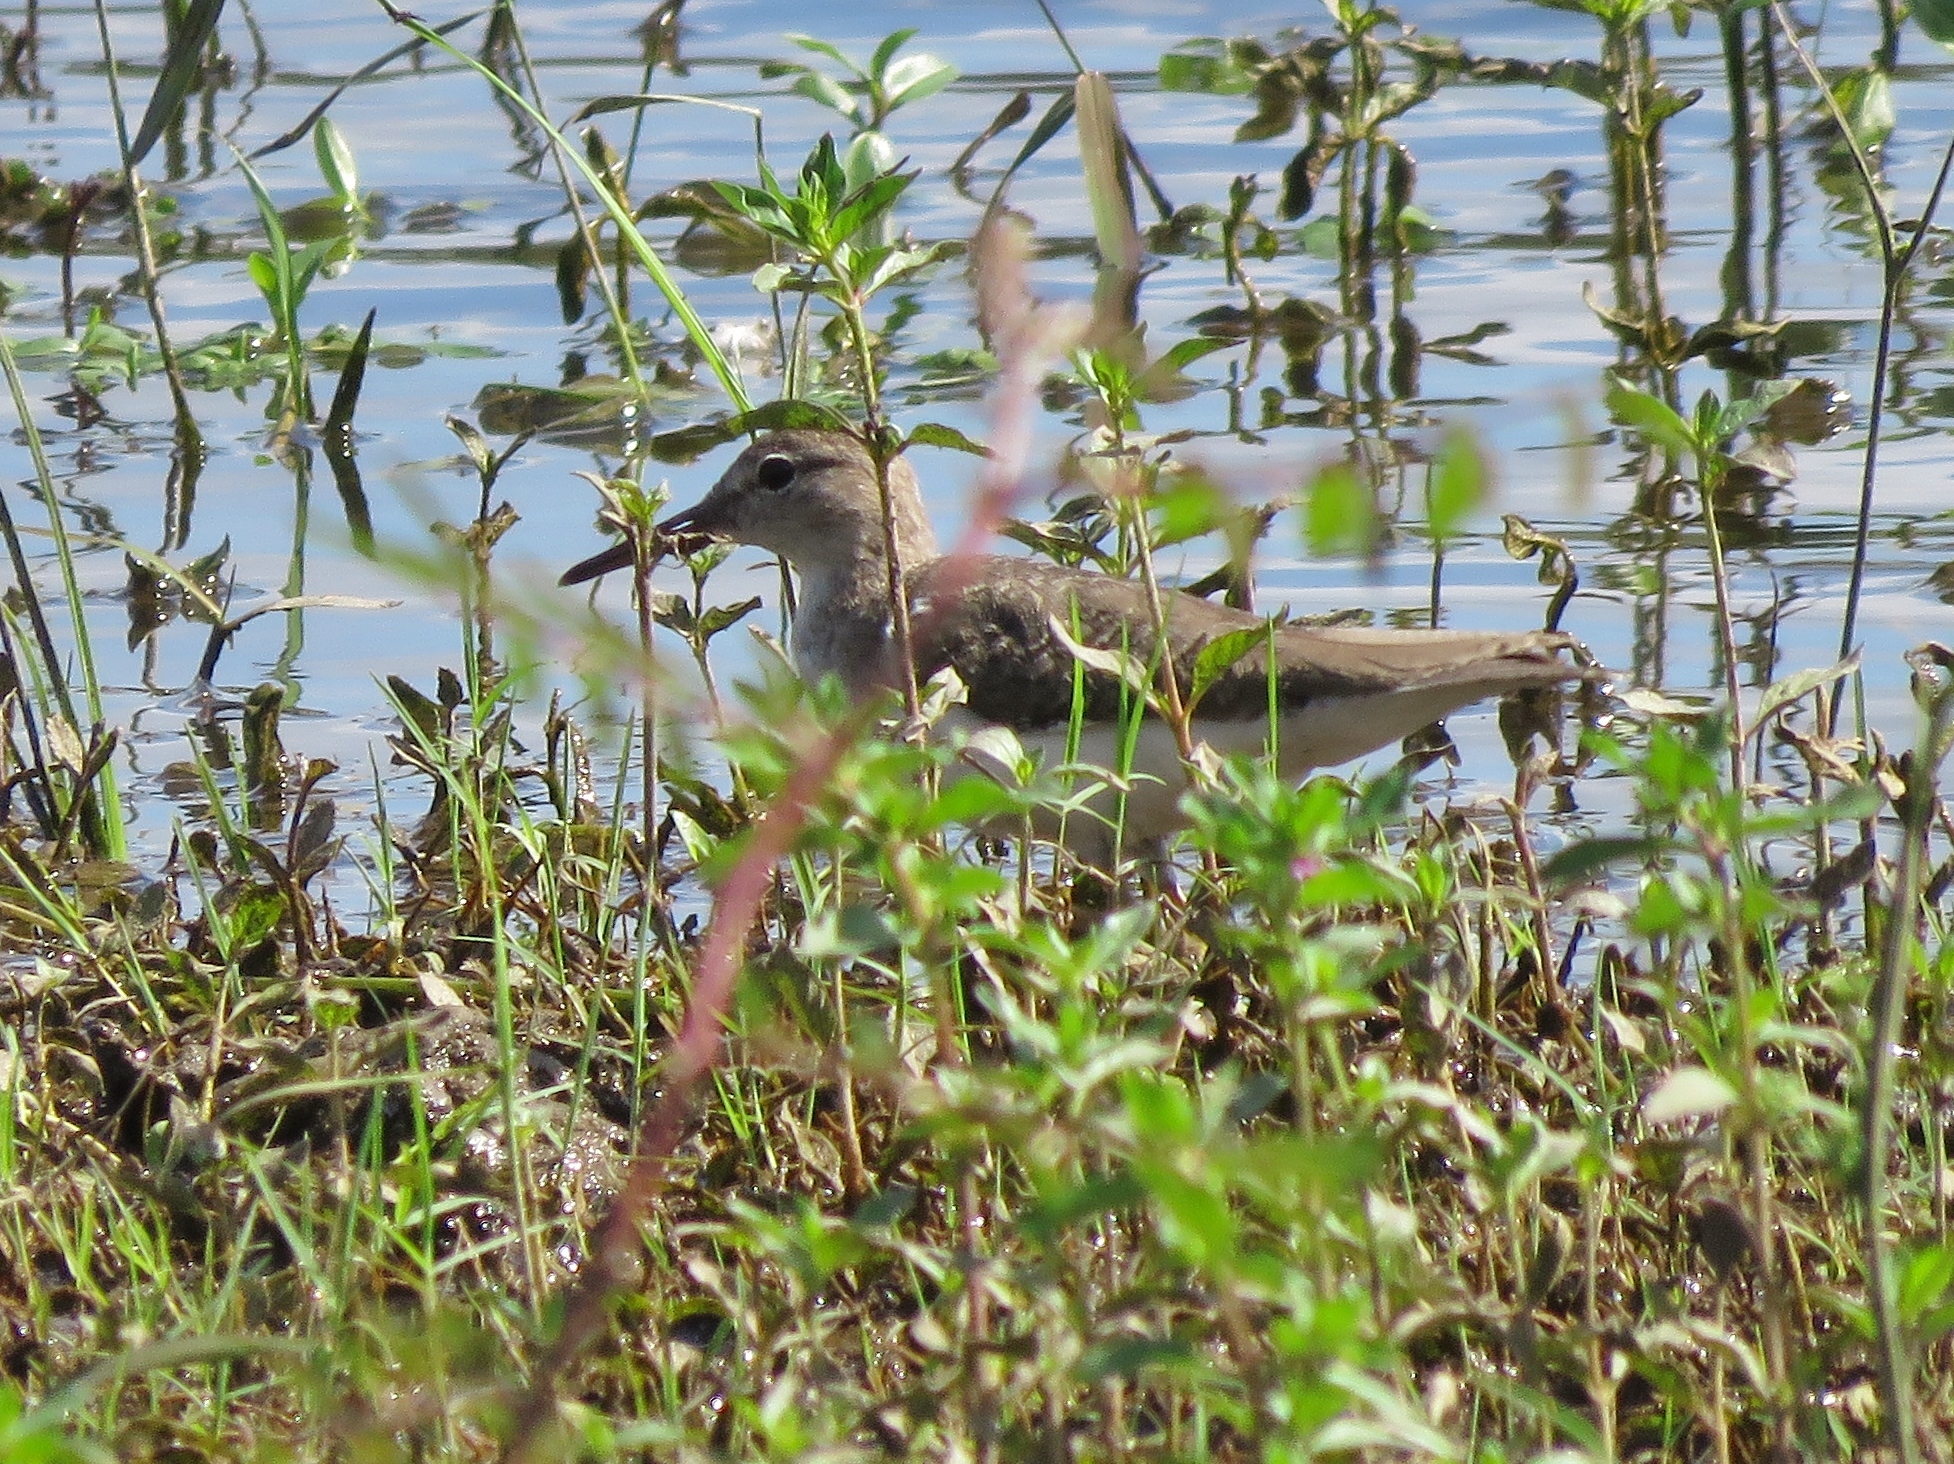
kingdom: Animalia
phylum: Chordata
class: Aves
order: Charadriiformes
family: Scolopacidae
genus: Tringa
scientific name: Tringa solitaria
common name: Solitary sandpiper
